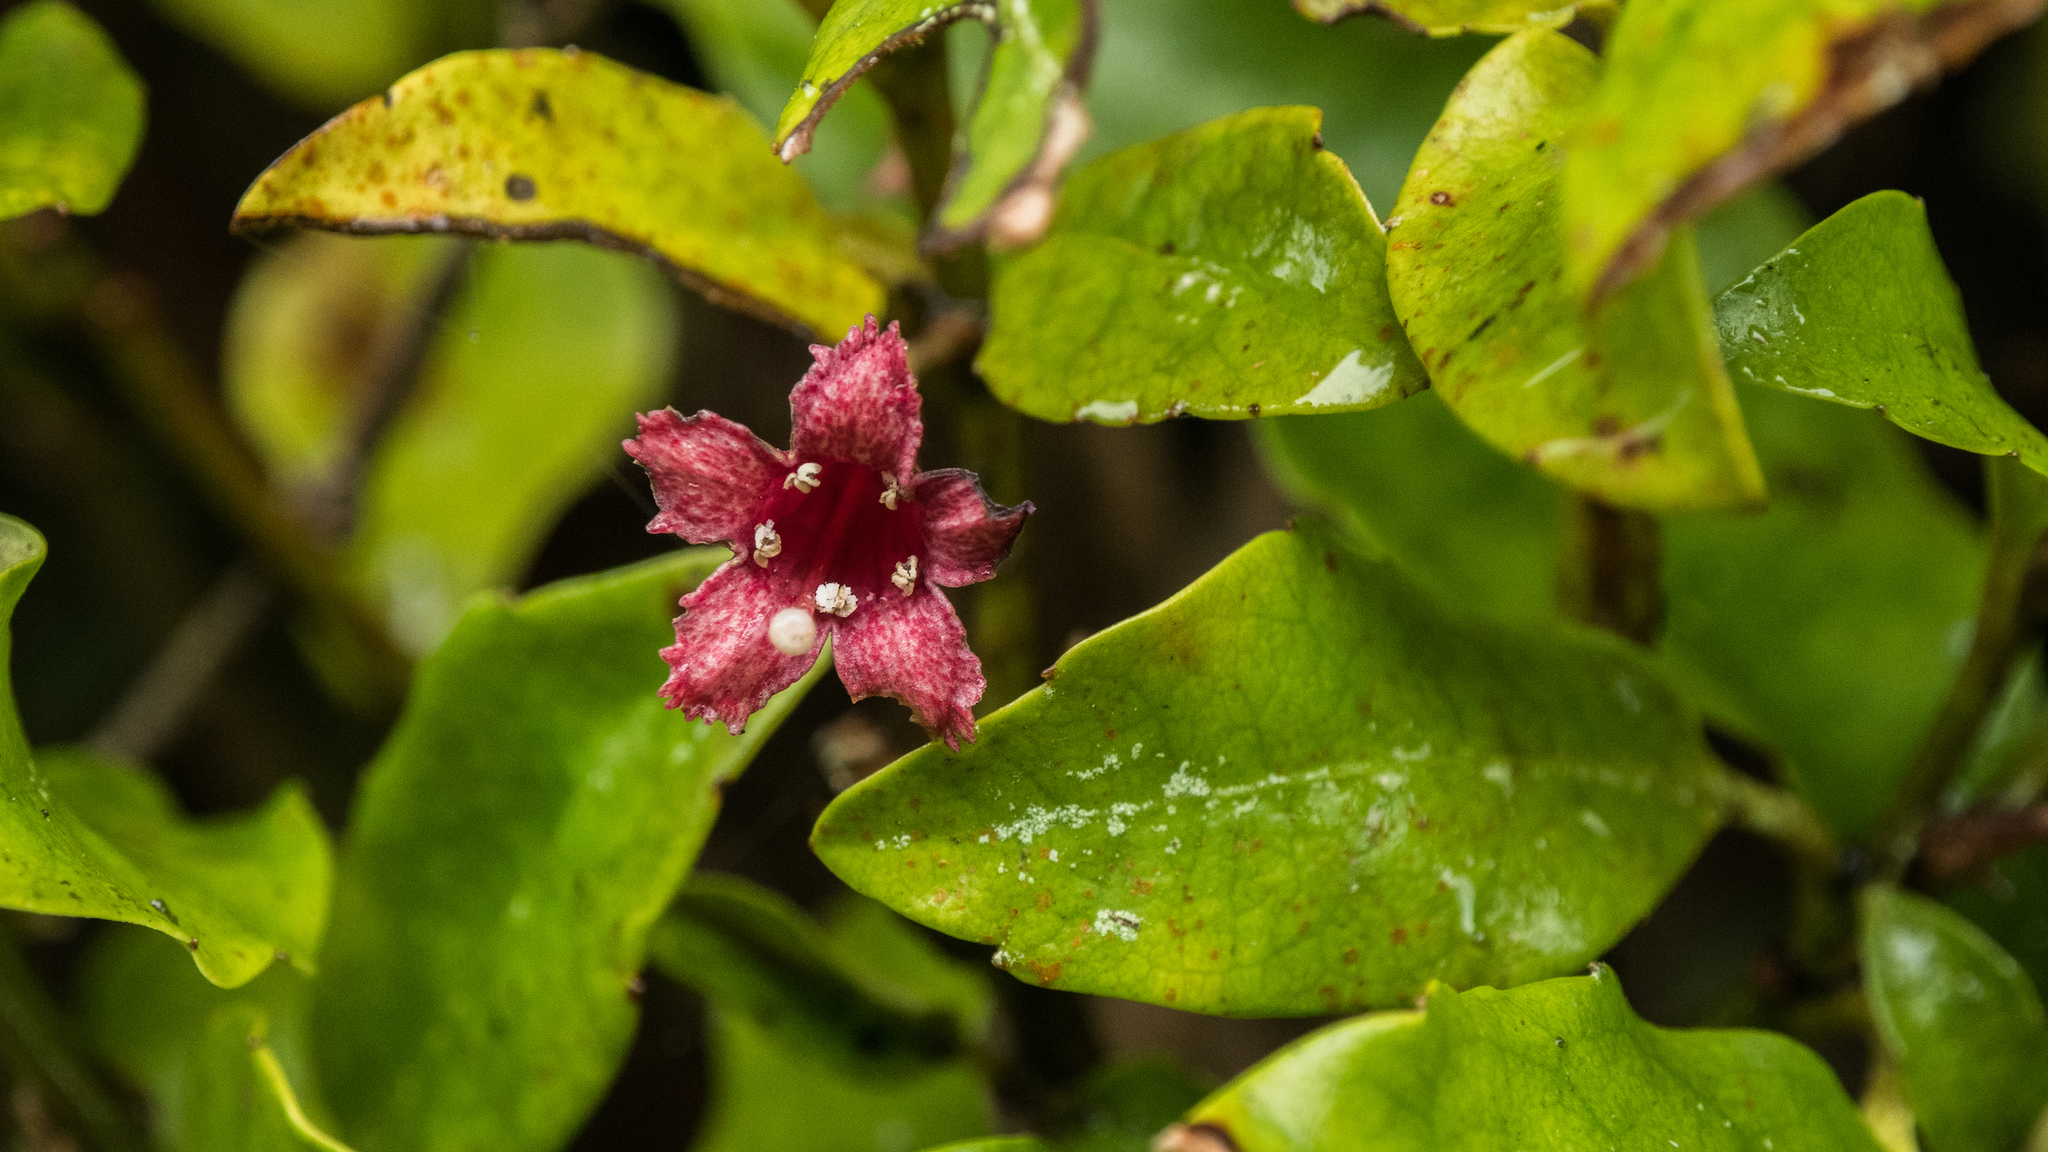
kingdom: Plantae
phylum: Tracheophyta
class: Magnoliopsida
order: Asterales
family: Alseuosmiaceae
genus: Alseuosmia
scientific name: Alseuosmia macrophylla
